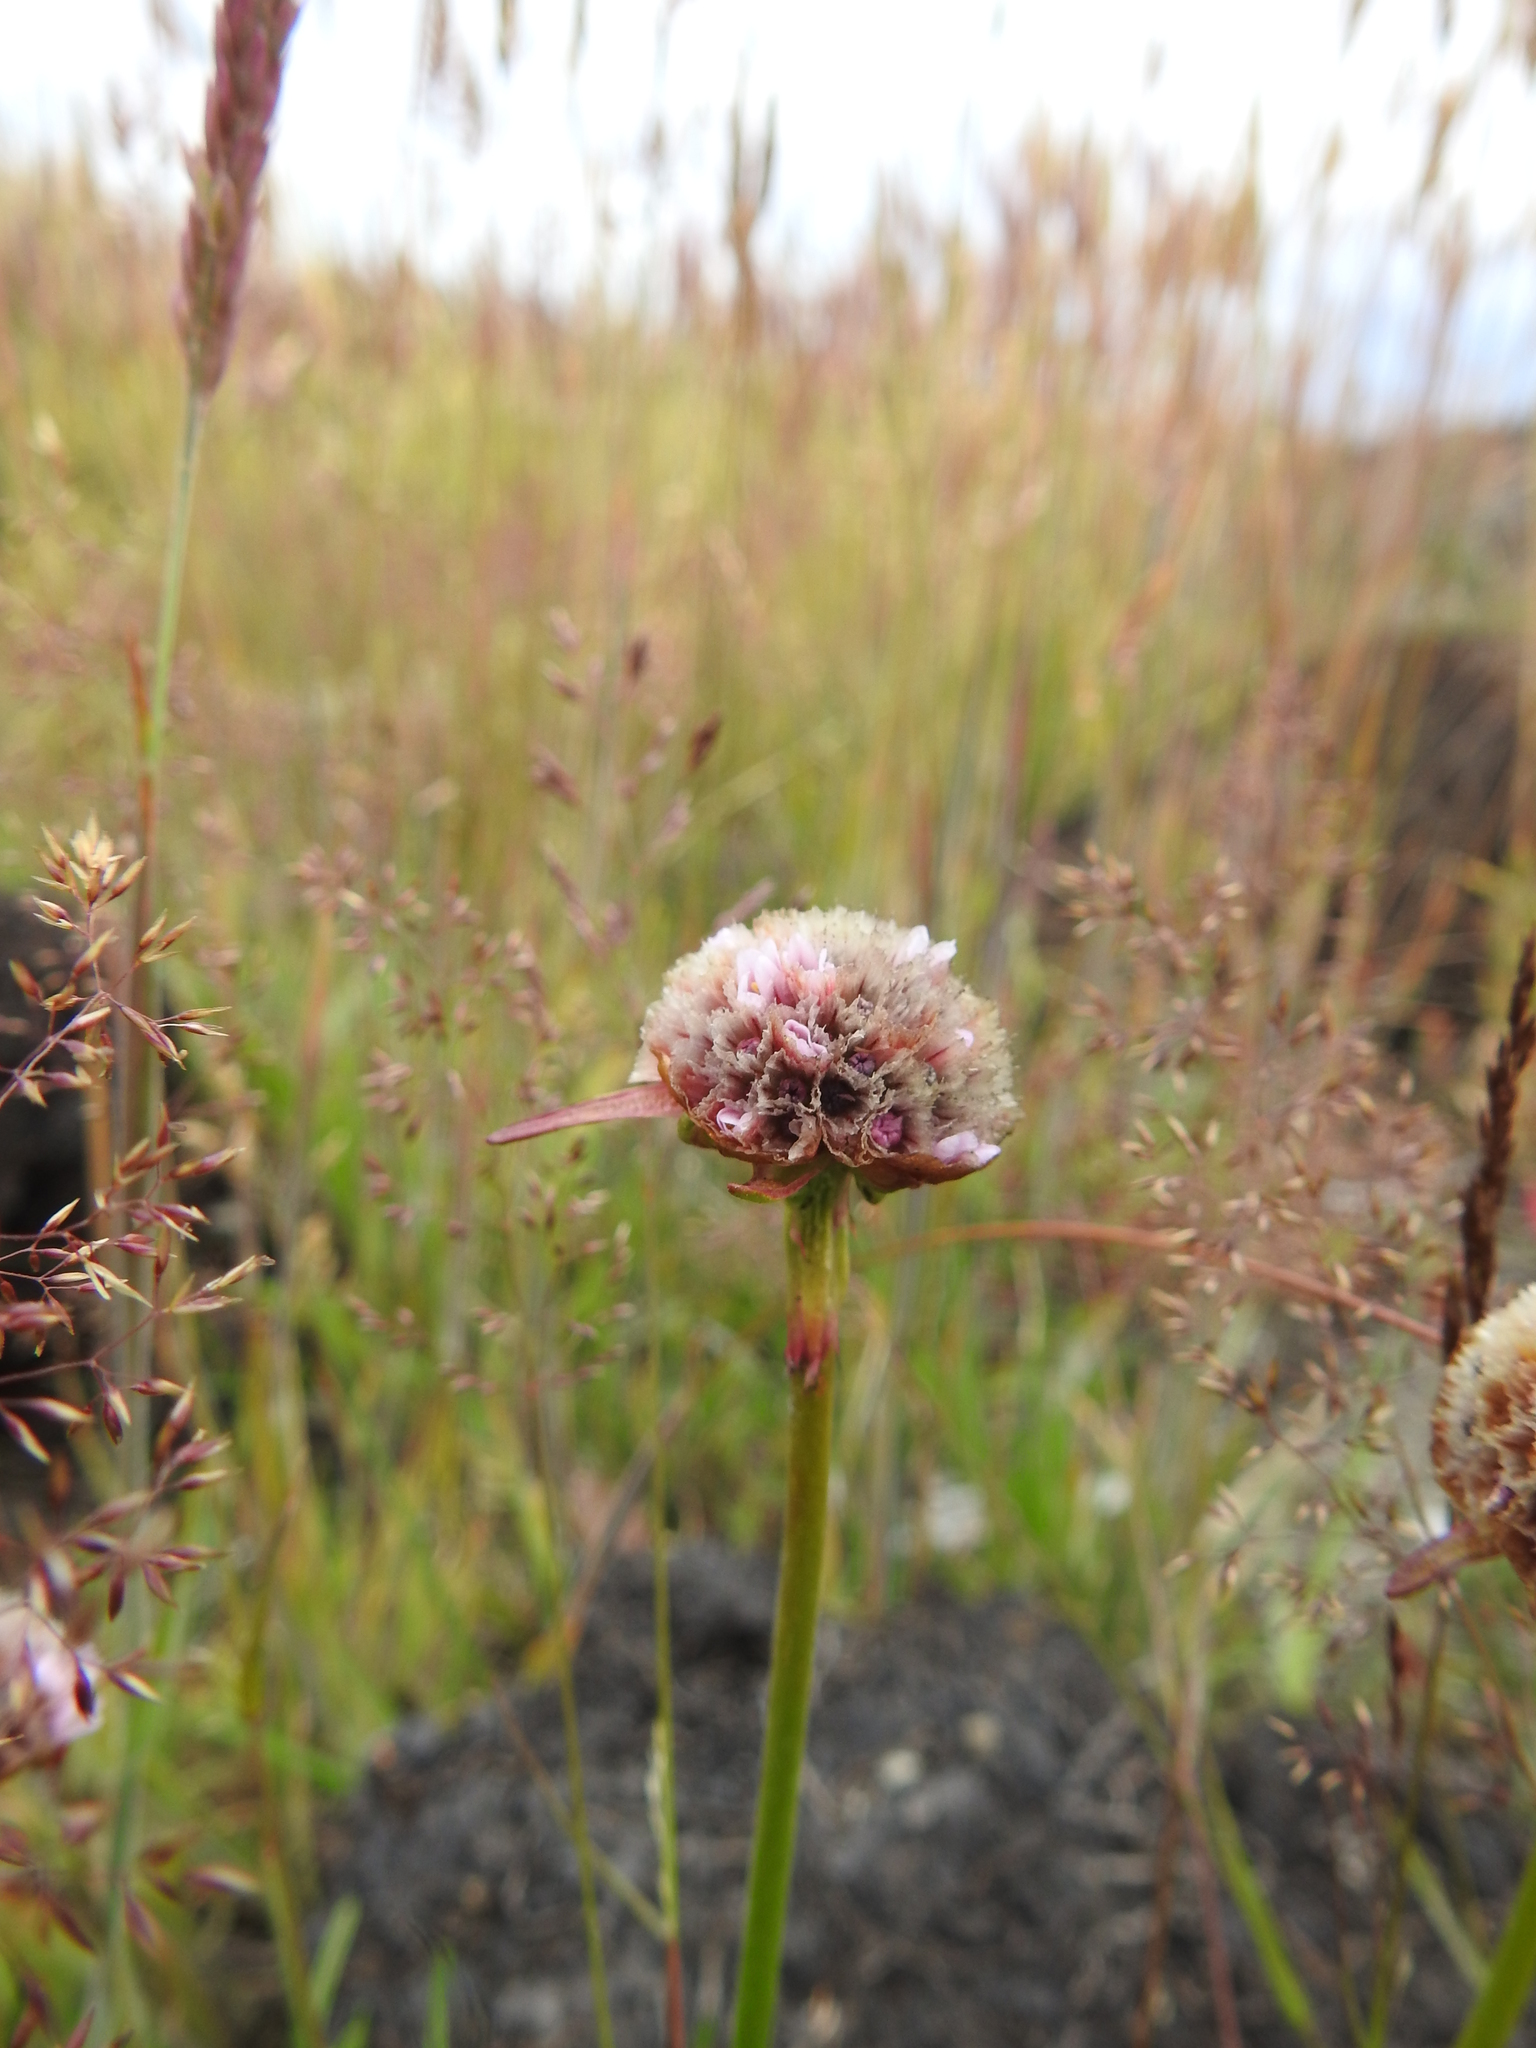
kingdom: Plantae
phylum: Tracheophyta
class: Magnoliopsida
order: Caryophyllales
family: Plumbaginaceae
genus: Armeria
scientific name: Armeria curvifolia
